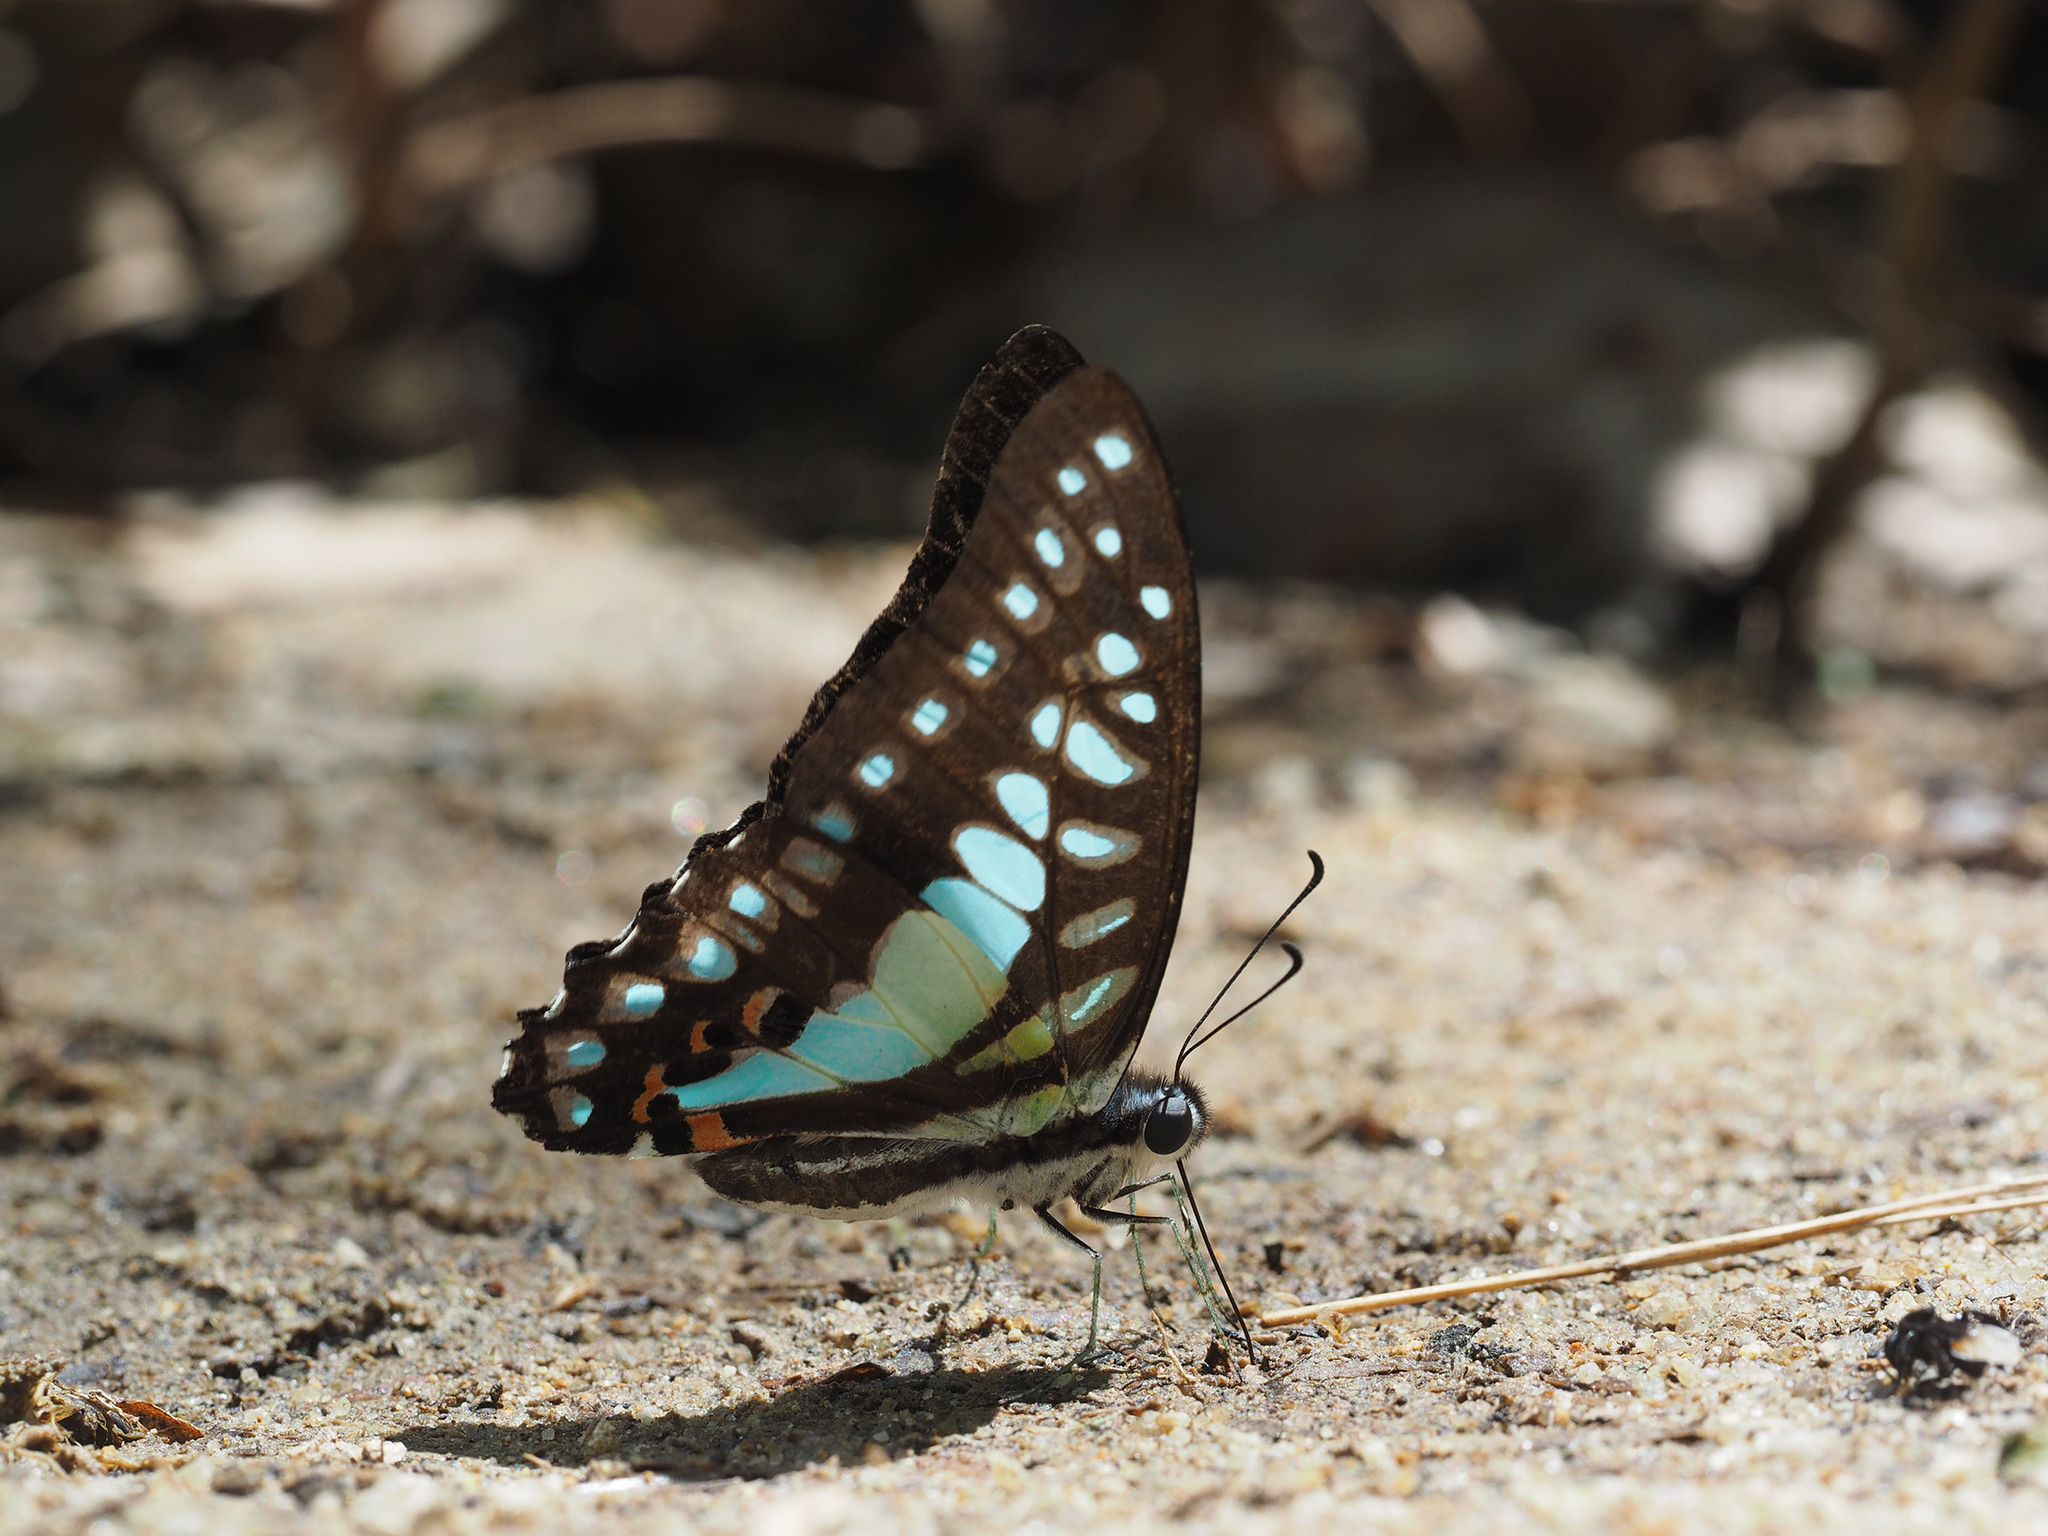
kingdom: Animalia
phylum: Arthropoda
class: Insecta
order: Lepidoptera
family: Papilionidae
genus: Graphium
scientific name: Graphium evemon
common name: Lesser jay
